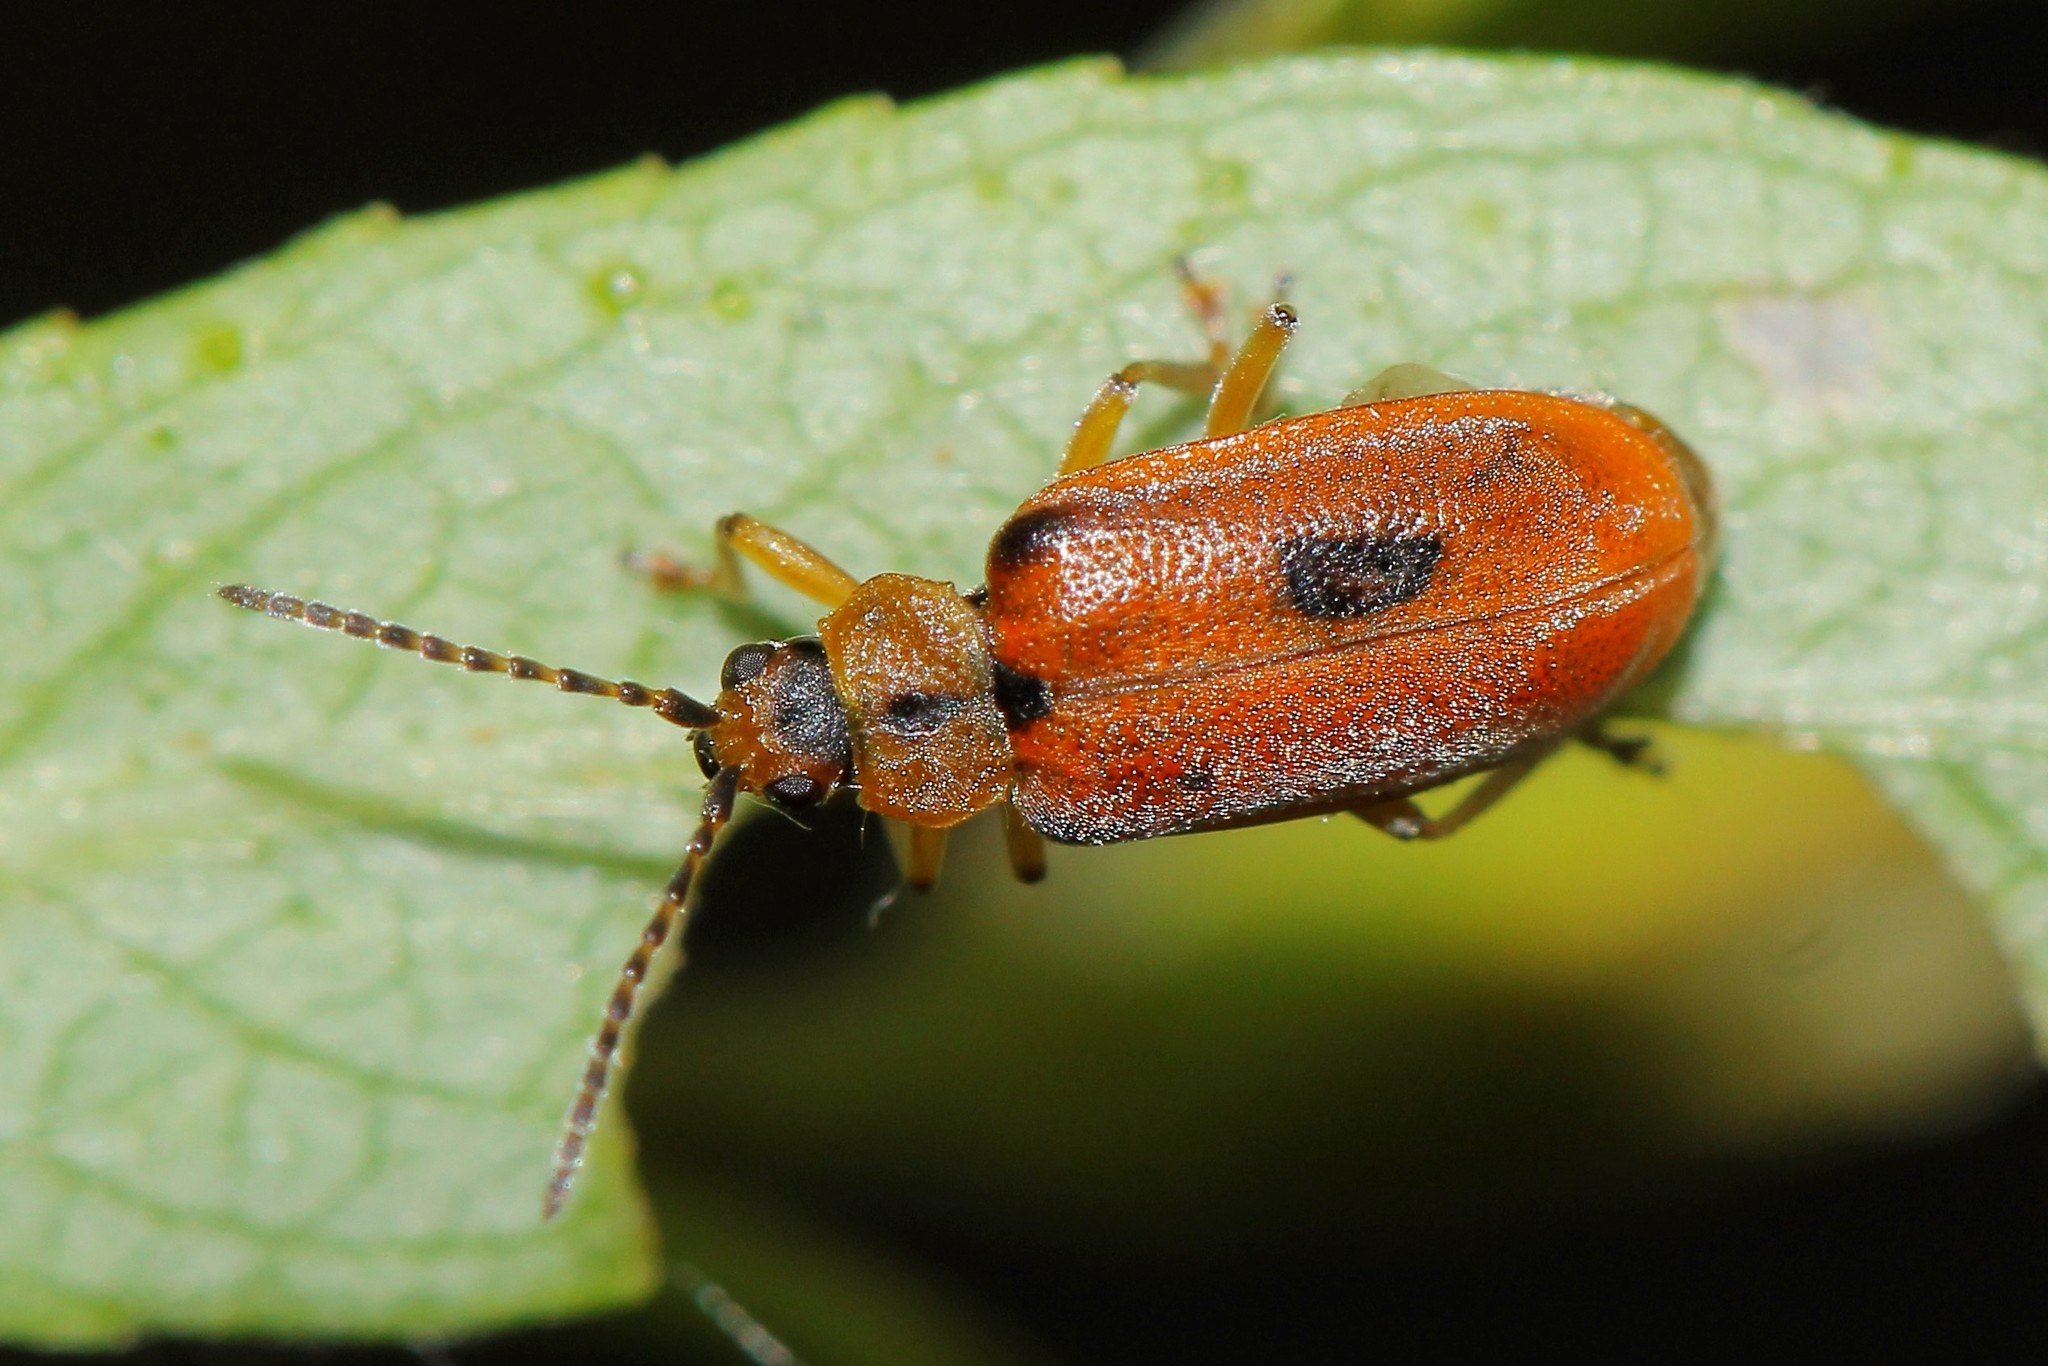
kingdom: Animalia
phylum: Arthropoda
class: Insecta
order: Coleoptera
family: Chrysomelidae
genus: Galerucella
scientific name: Galerucella lineola
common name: Brown willow beetle
